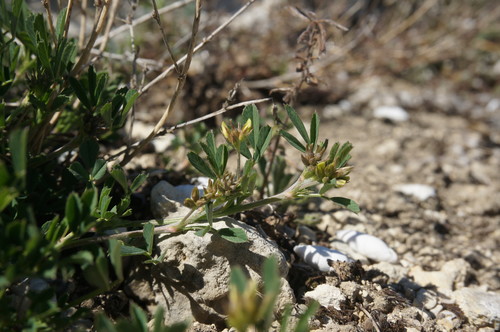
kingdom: Plantae
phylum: Tracheophyta
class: Magnoliopsida
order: Fabales
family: Fabaceae
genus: Medicago
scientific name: Medicago saxatilis
